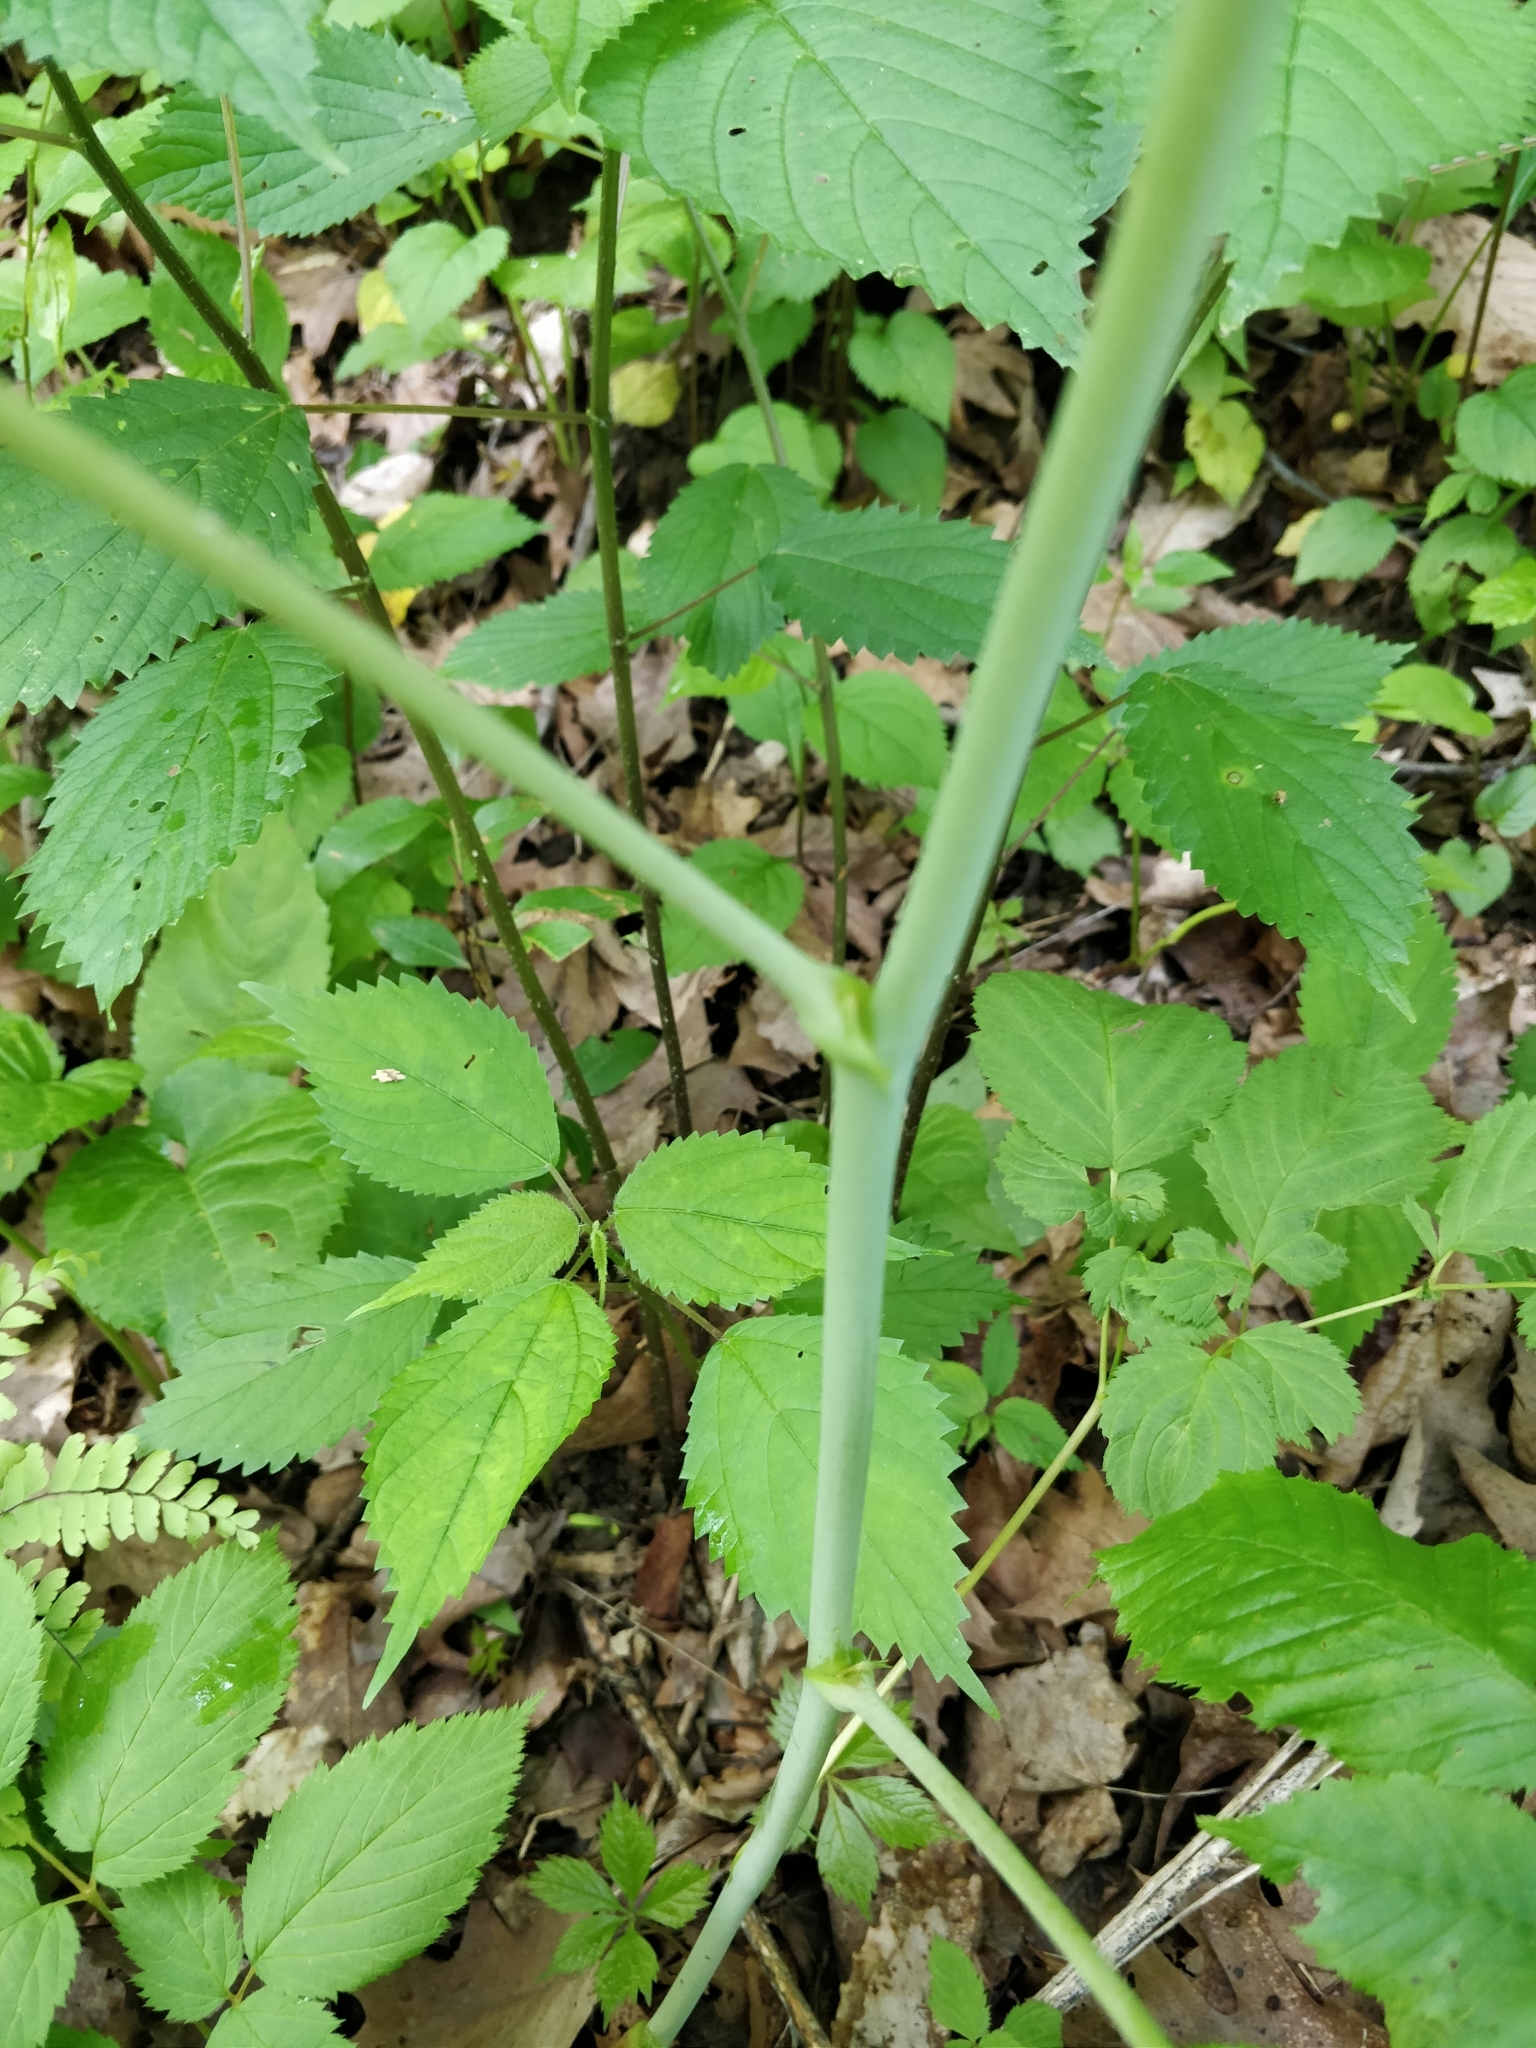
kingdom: Plantae
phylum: Tracheophyta
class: Magnoliopsida
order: Rosales
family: Rosaceae
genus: Aruncus
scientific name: Aruncus dioicus
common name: Buck's-beard
